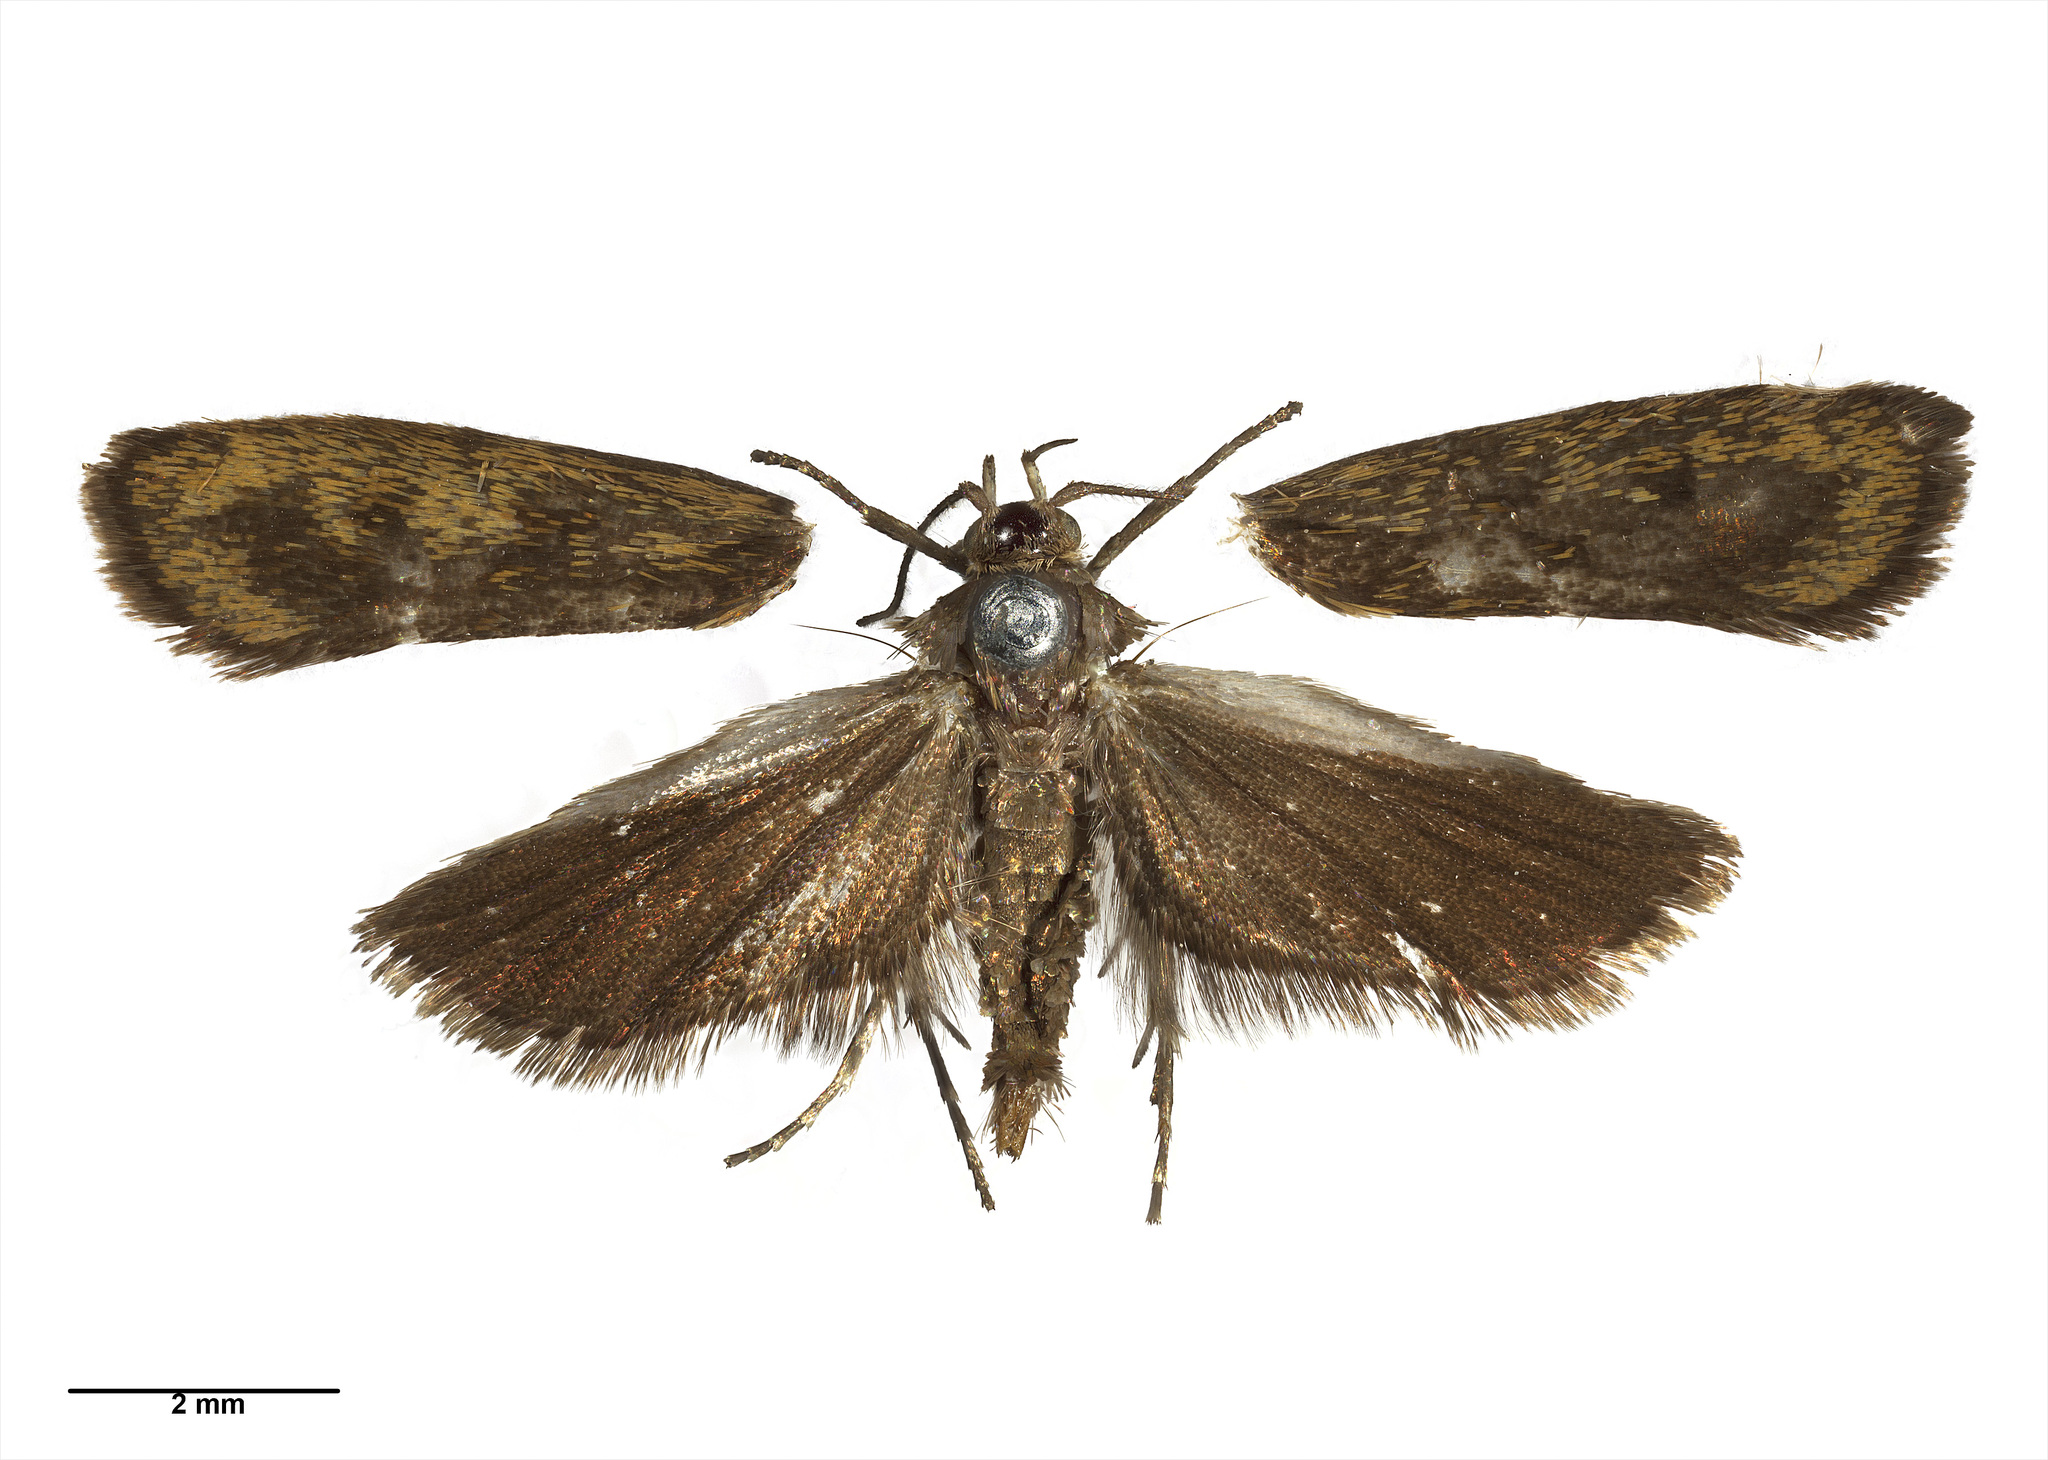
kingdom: Animalia
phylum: Arthropoda
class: Insecta
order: Lepidoptera
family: Oecophoridae
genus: Hierodoris
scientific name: Hierodoris atychioides
